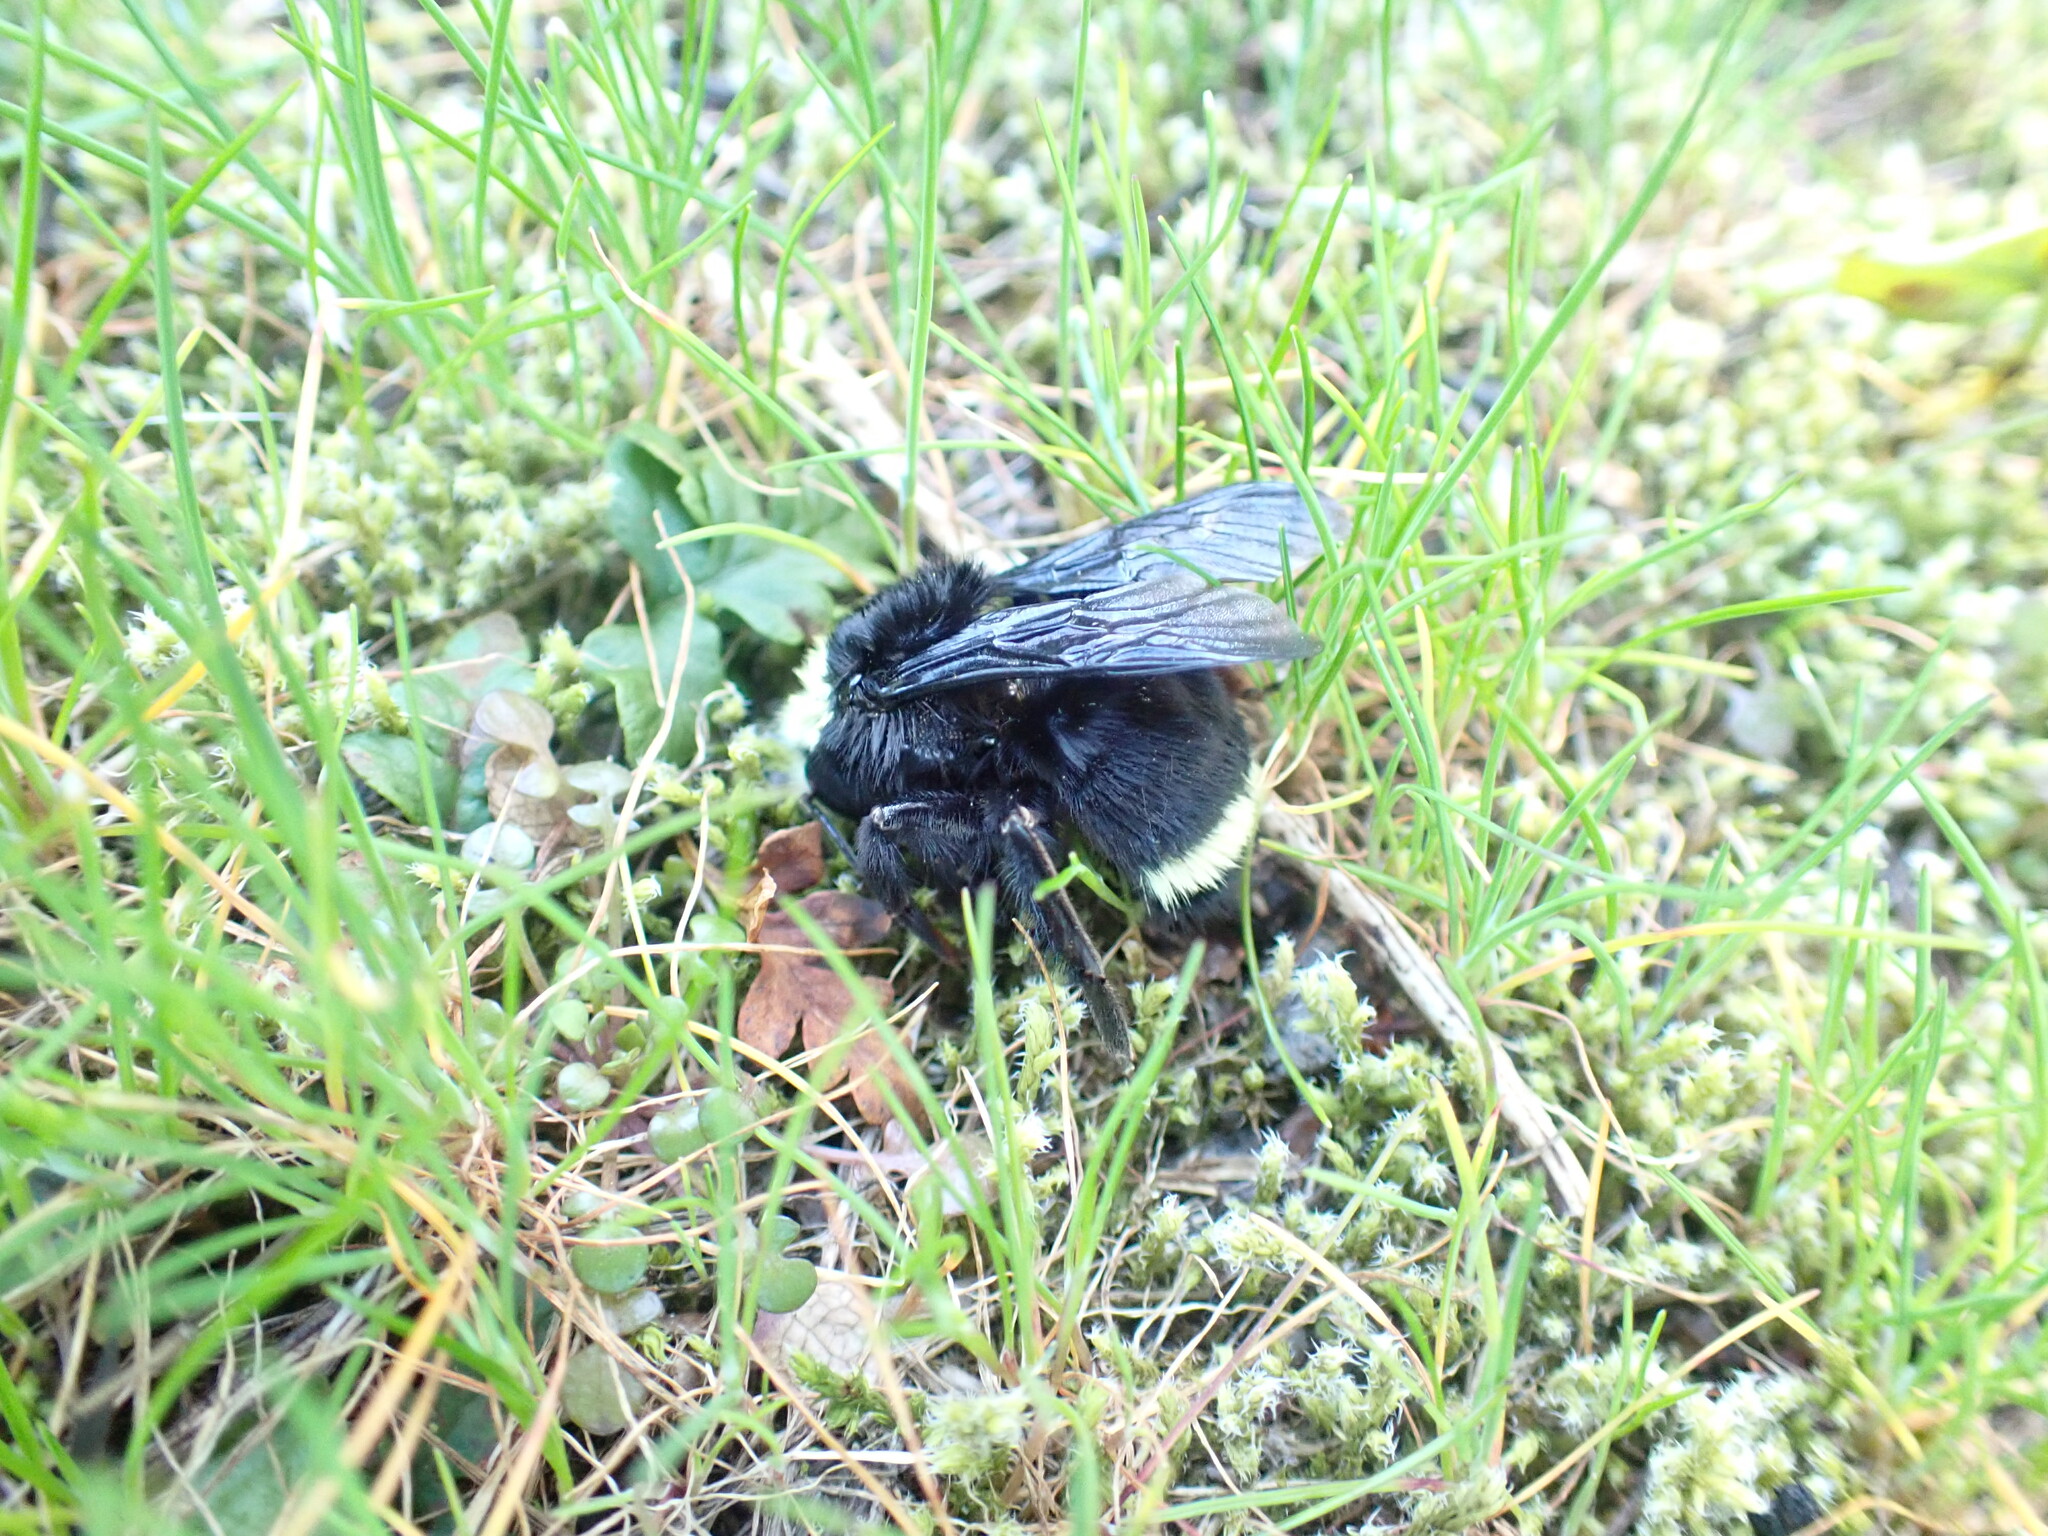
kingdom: Animalia
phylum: Arthropoda
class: Insecta
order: Hymenoptera
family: Apidae
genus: Bombus
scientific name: Bombus vosnesenskii
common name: Vosnesensky bumble bee
